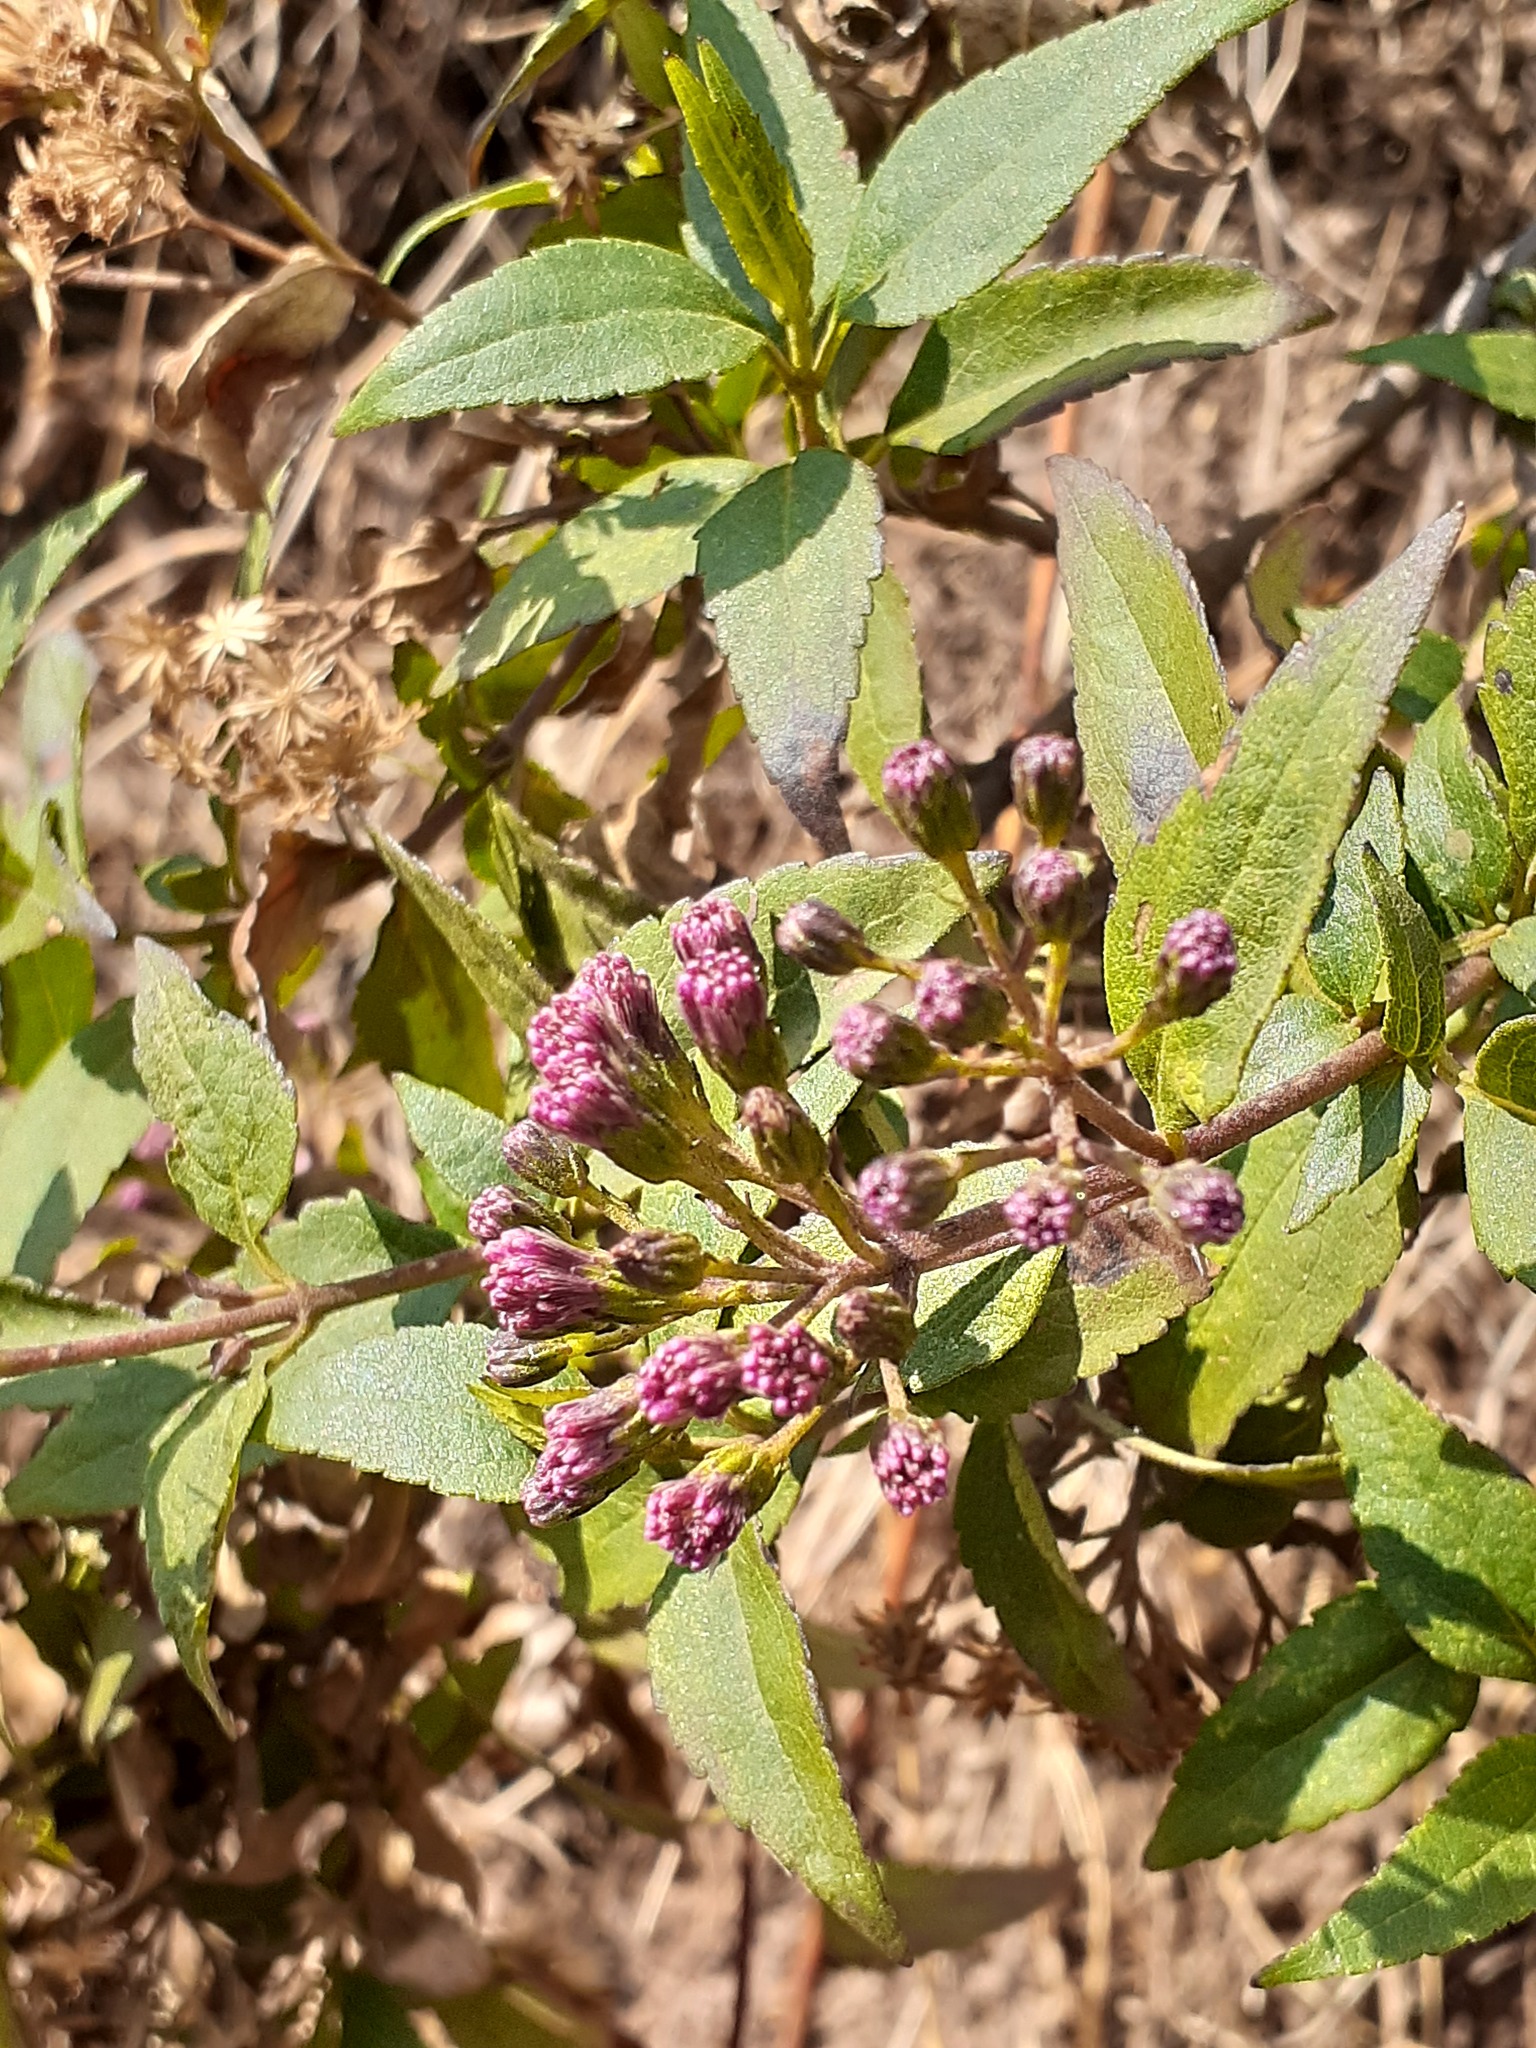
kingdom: Plantae
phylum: Tracheophyta
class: Magnoliopsida
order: Asterales
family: Asteraceae
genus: Ageratina
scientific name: Ageratina pentlandiana
